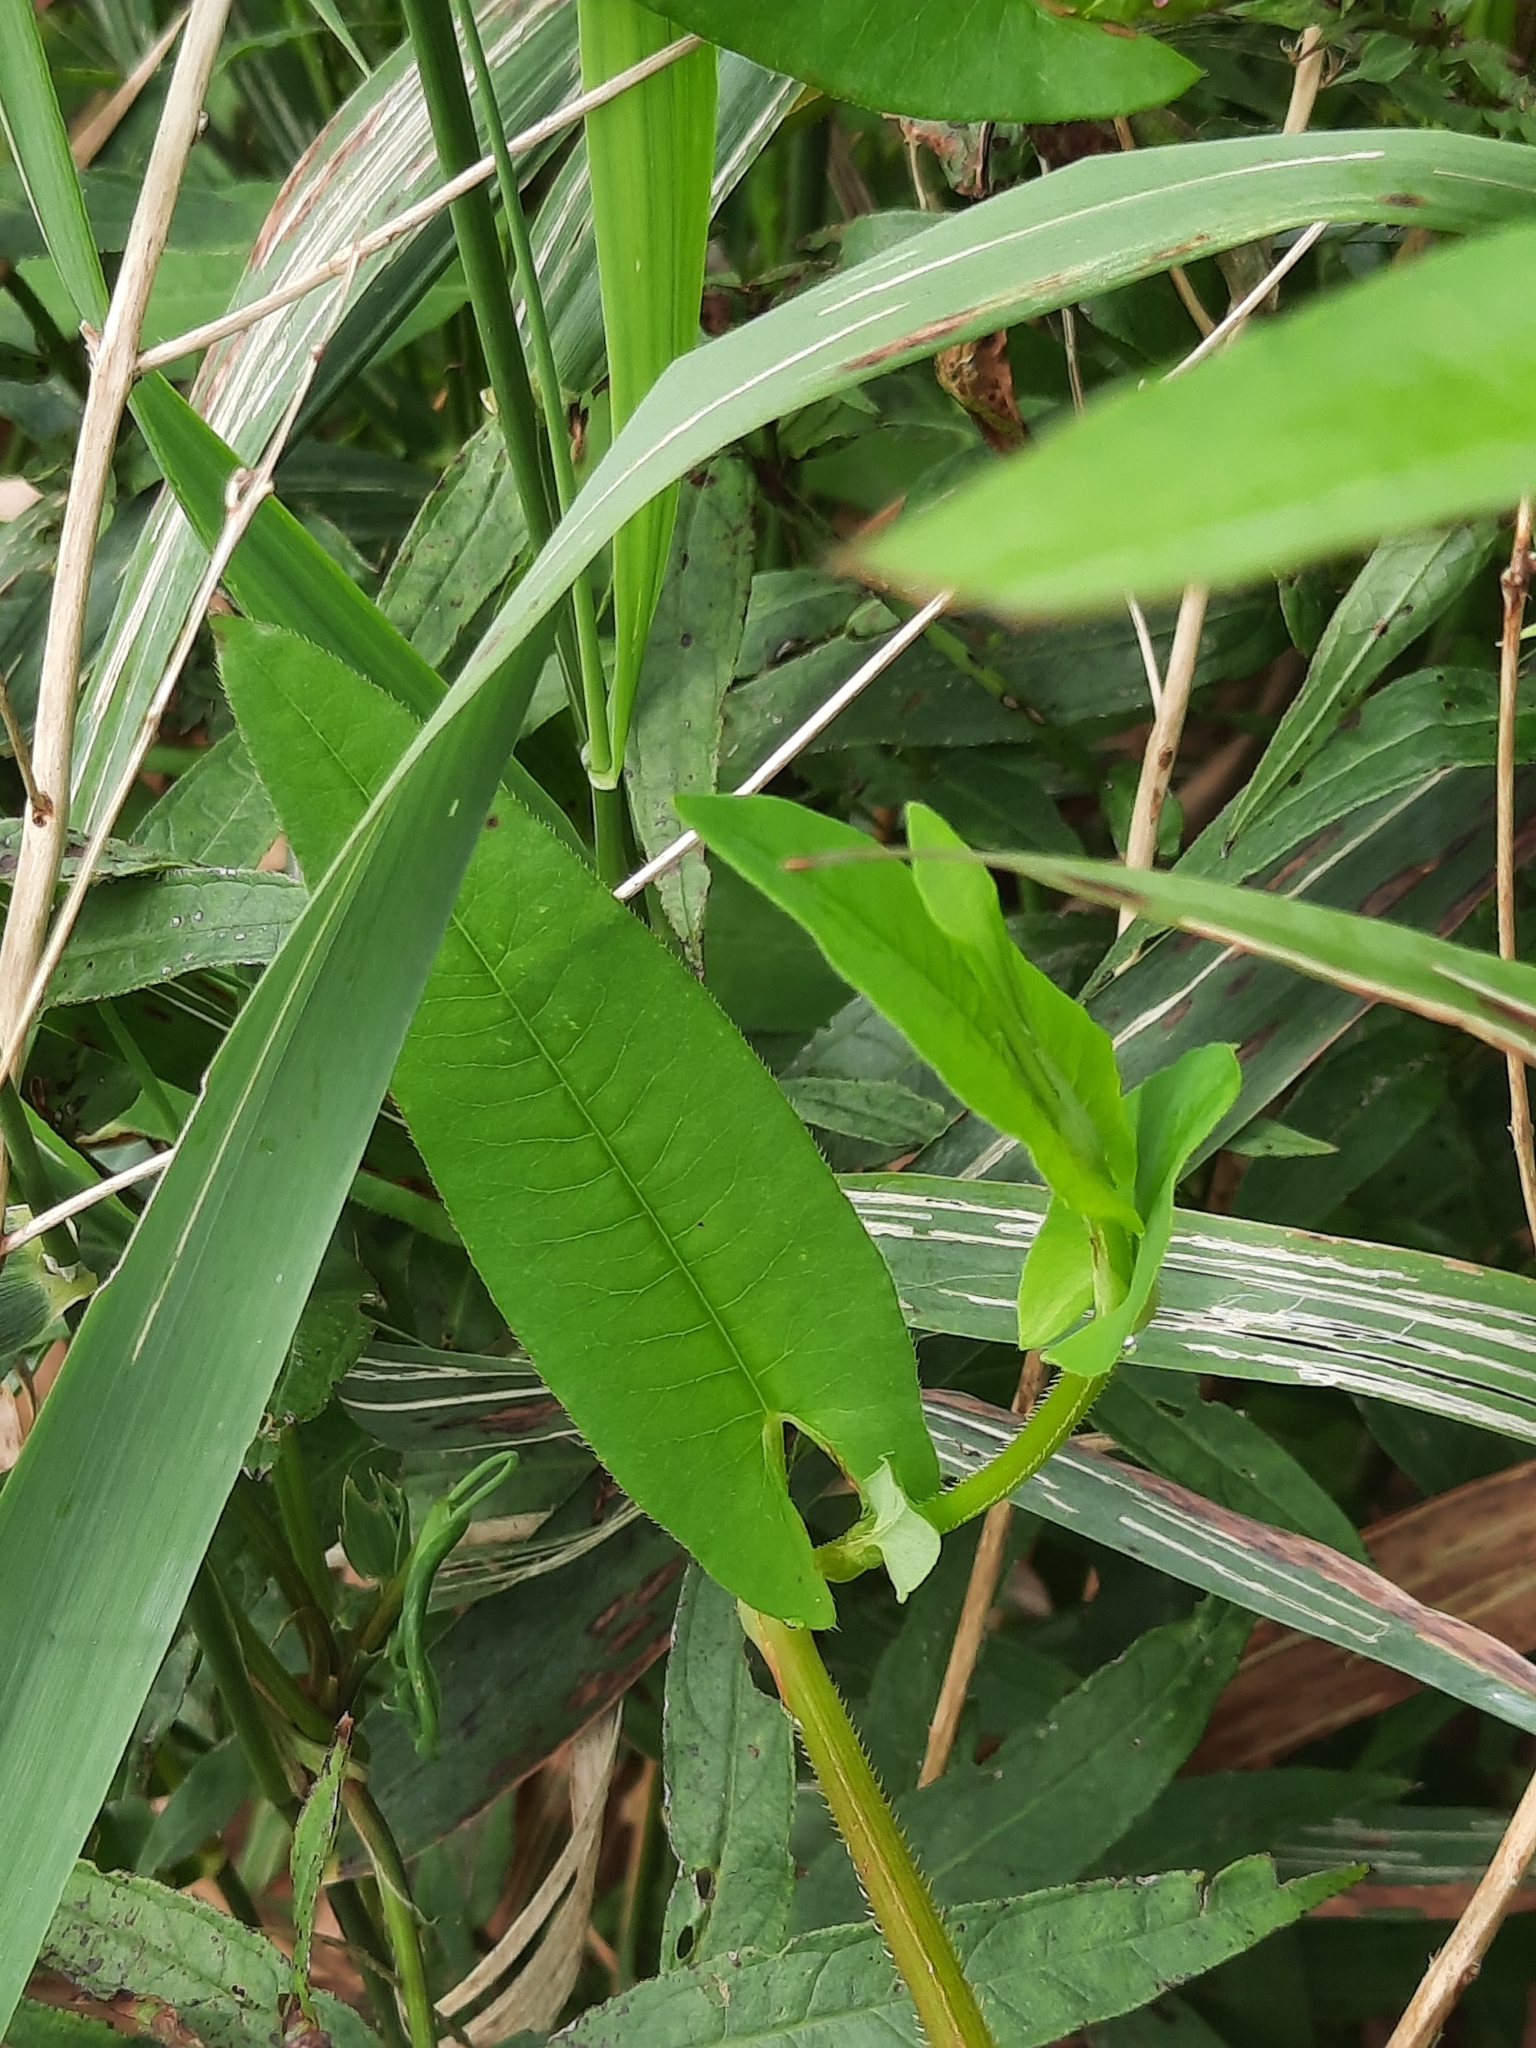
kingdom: Plantae
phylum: Tracheophyta
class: Magnoliopsida
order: Caryophyllales
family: Polygonaceae
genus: Persicaria
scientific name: Persicaria sagittata
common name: American tearthumb
